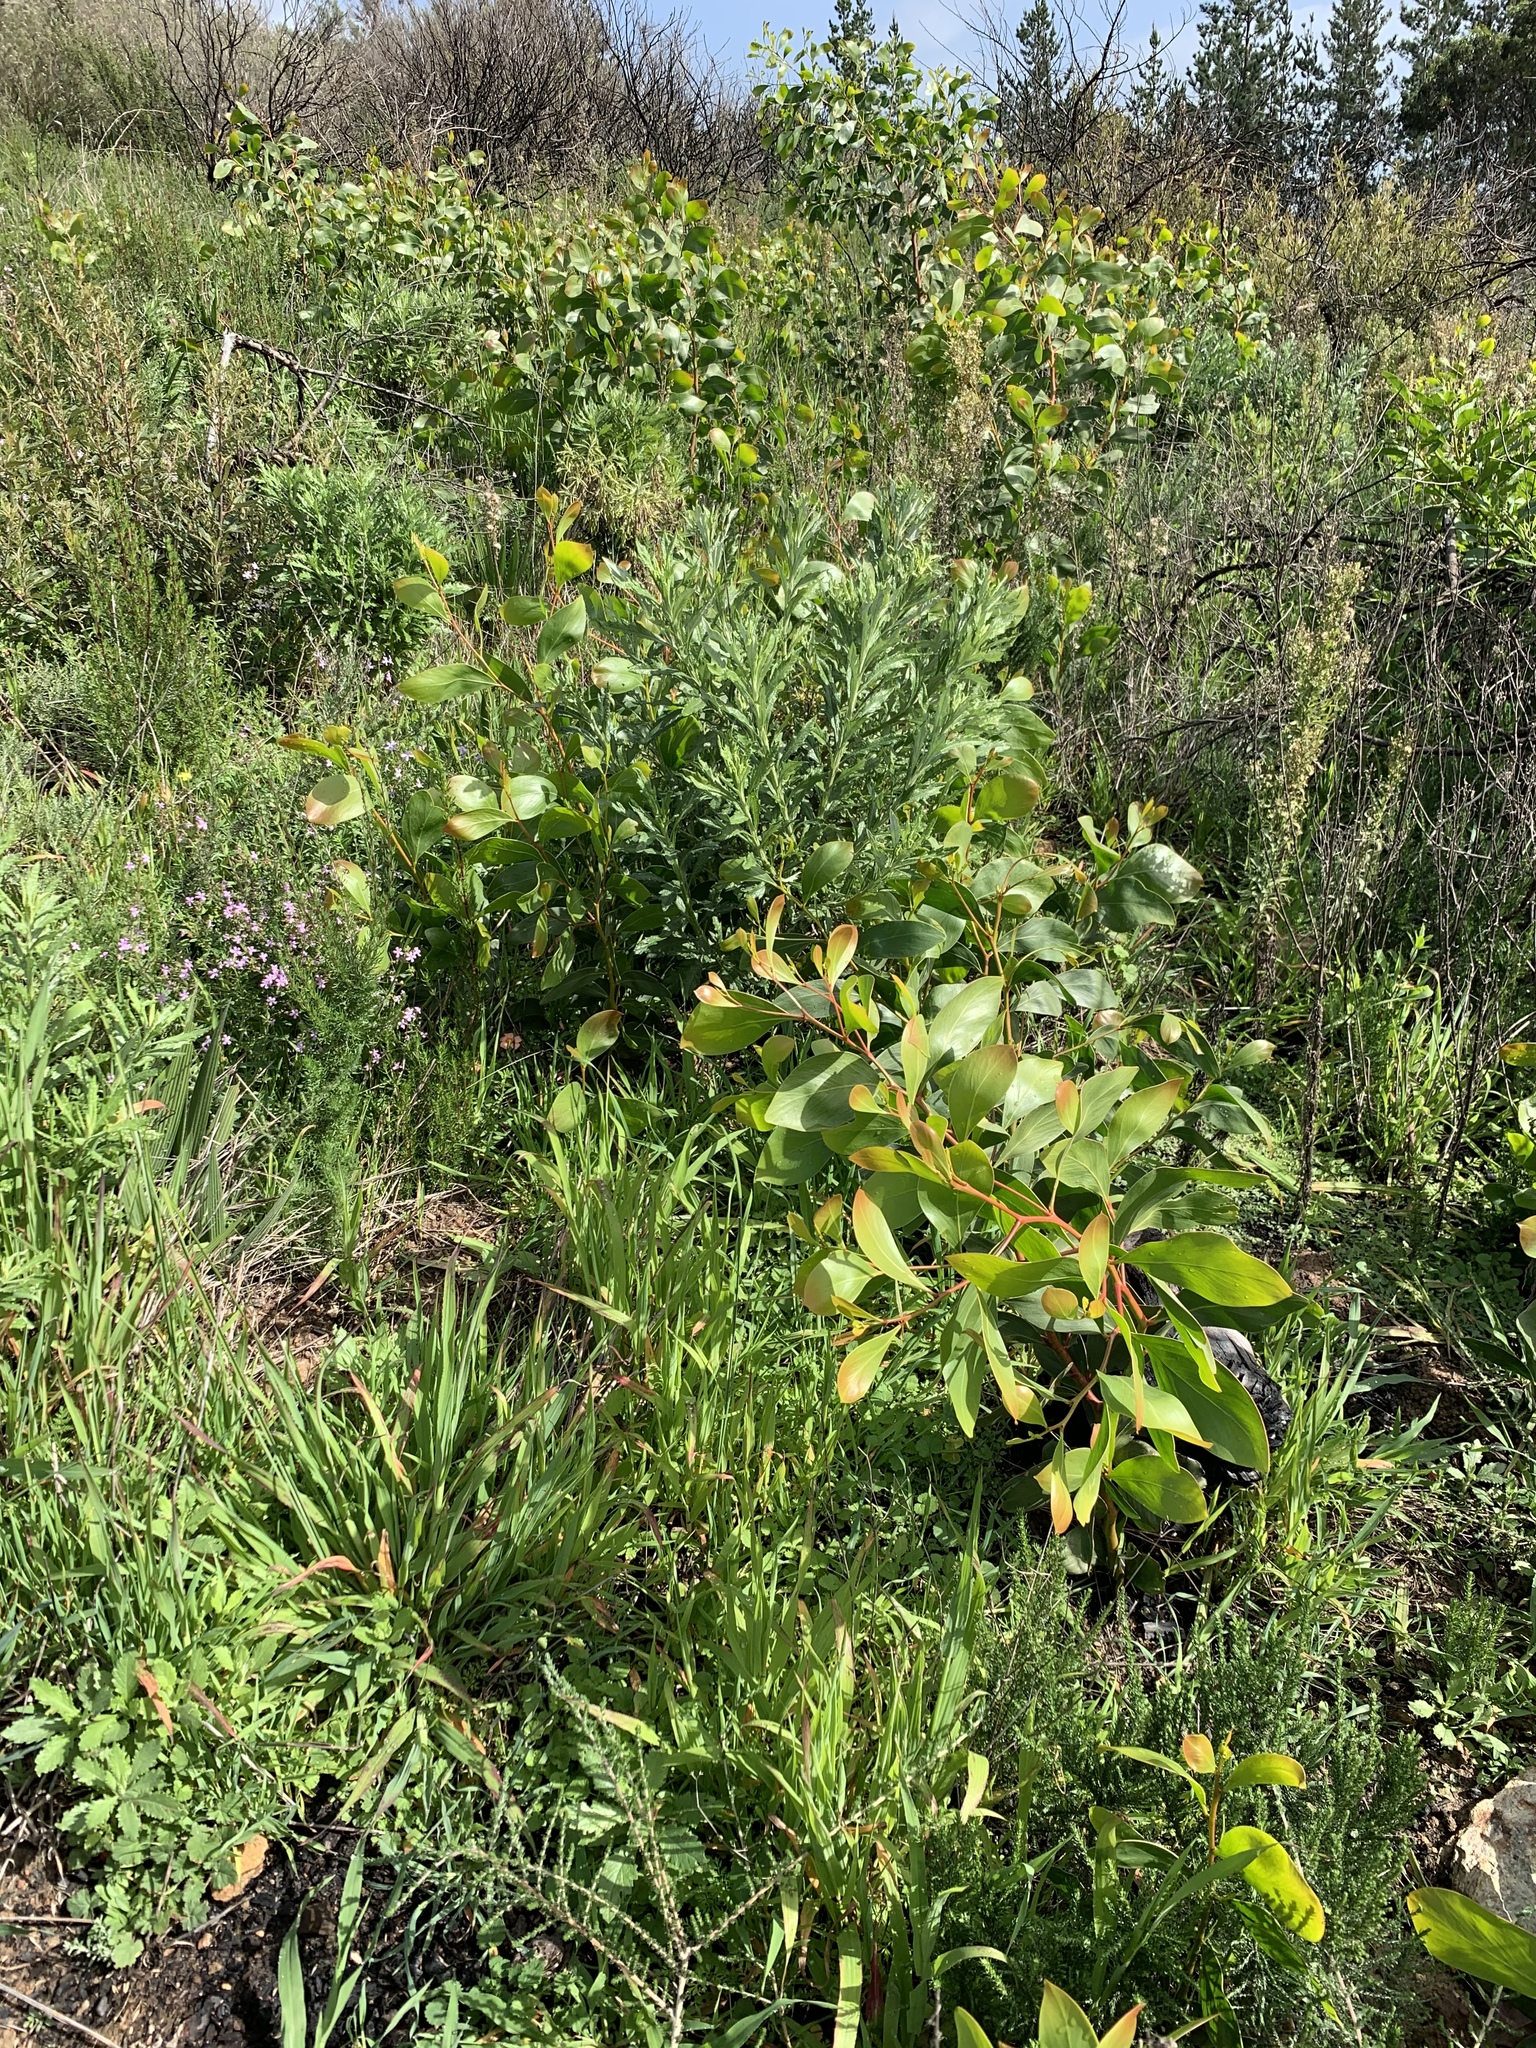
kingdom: Plantae
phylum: Tracheophyta
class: Magnoliopsida
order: Fabales
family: Fabaceae
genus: Acacia
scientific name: Acacia pycnantha
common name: Golden wattle
